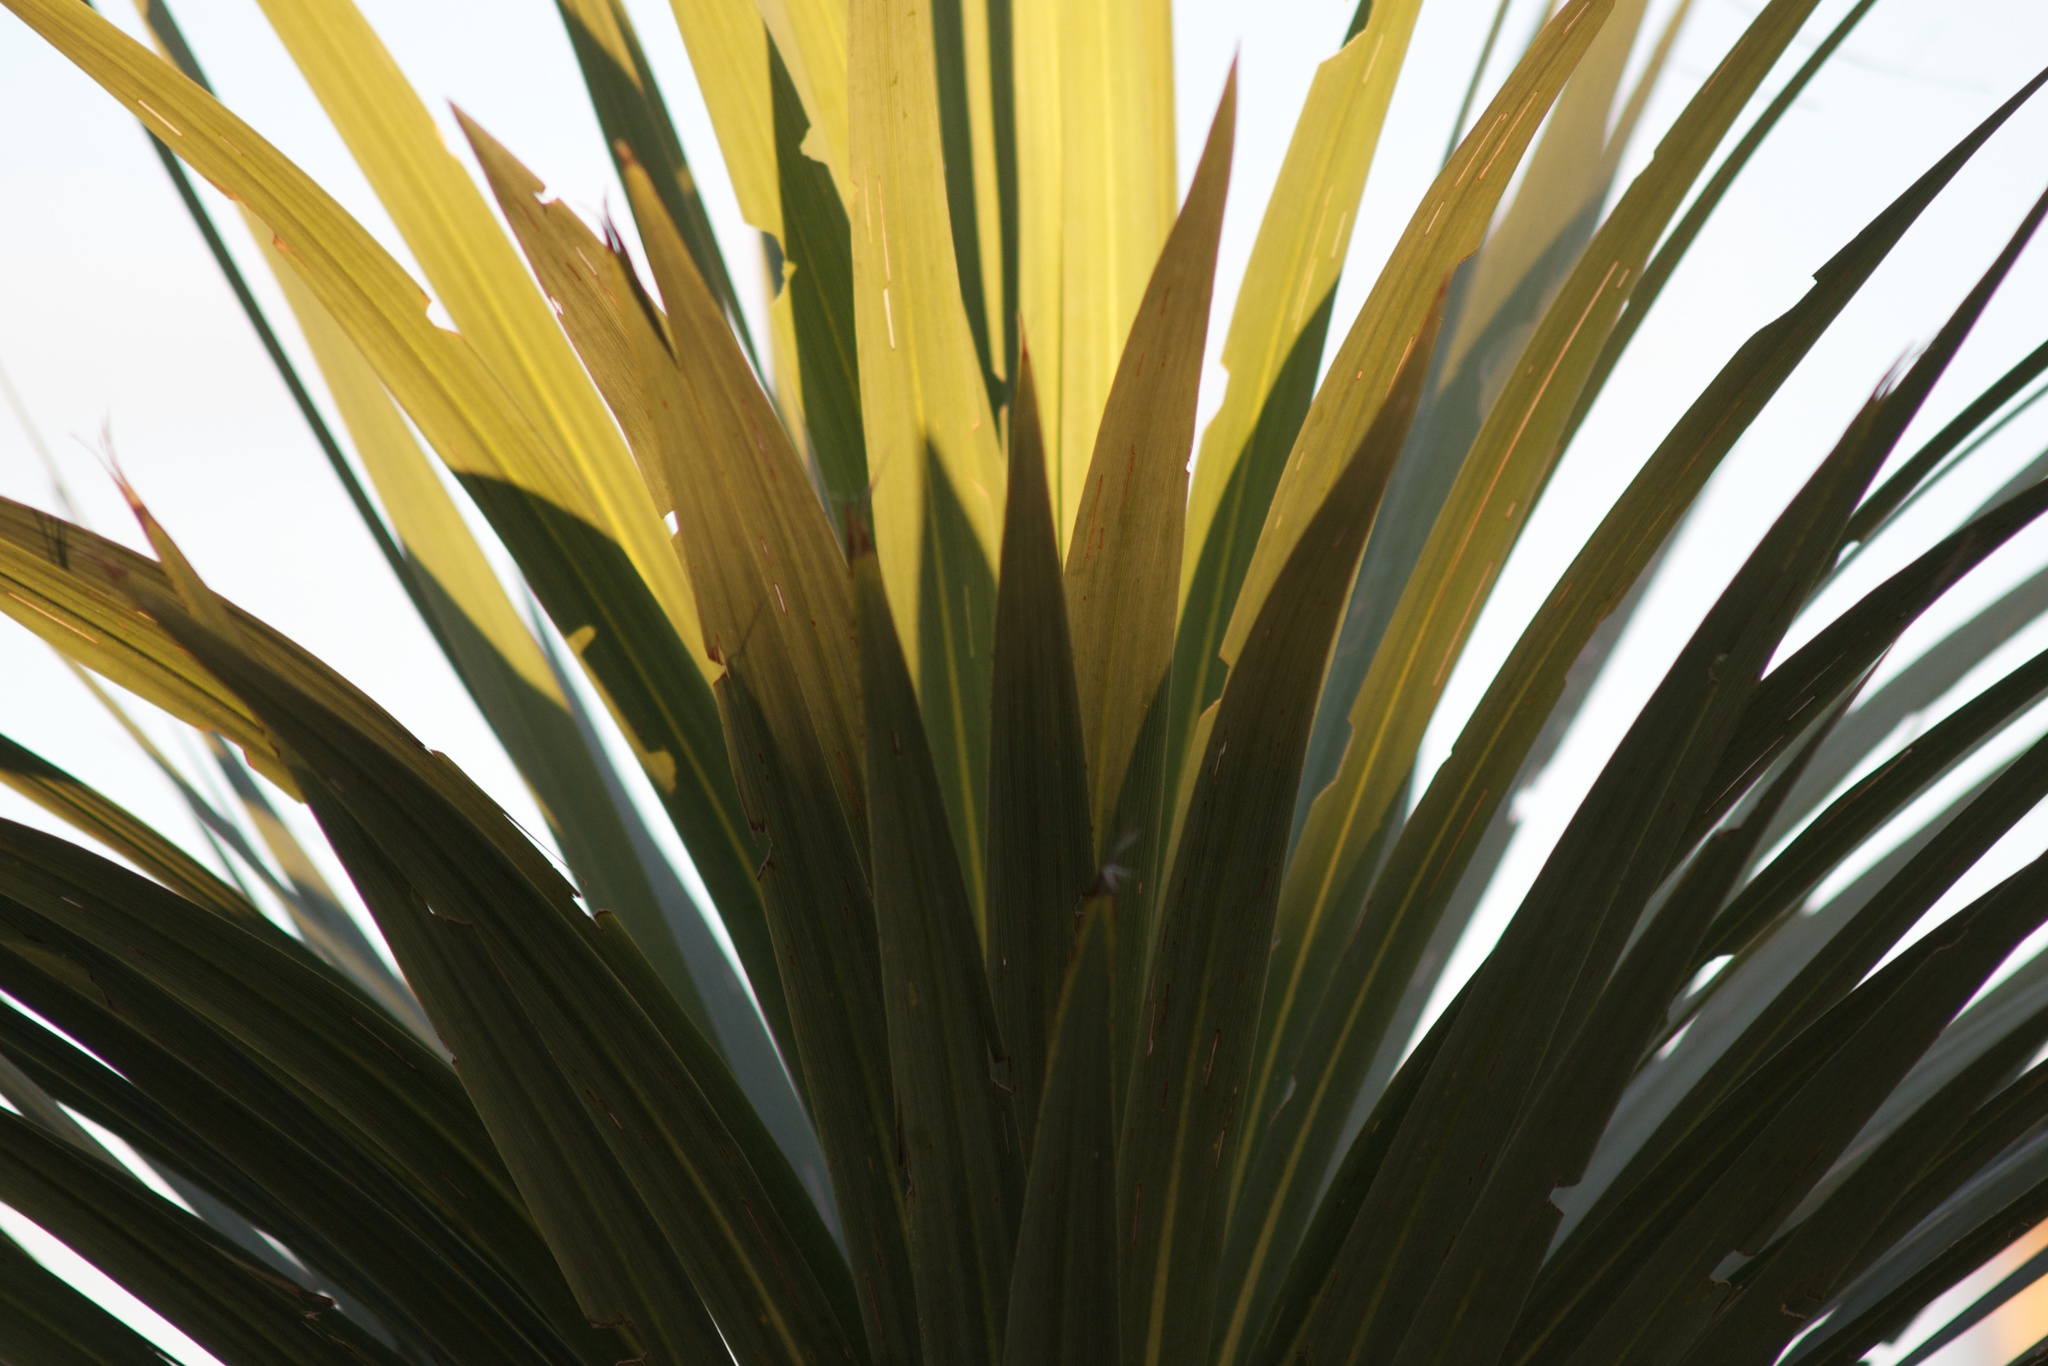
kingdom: Plantae
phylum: Tracheophyta
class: Liliopsida
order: Asparagales
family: Asparagaceae
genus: Cordyline
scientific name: Cordyline australis
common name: Cabbage-palm
